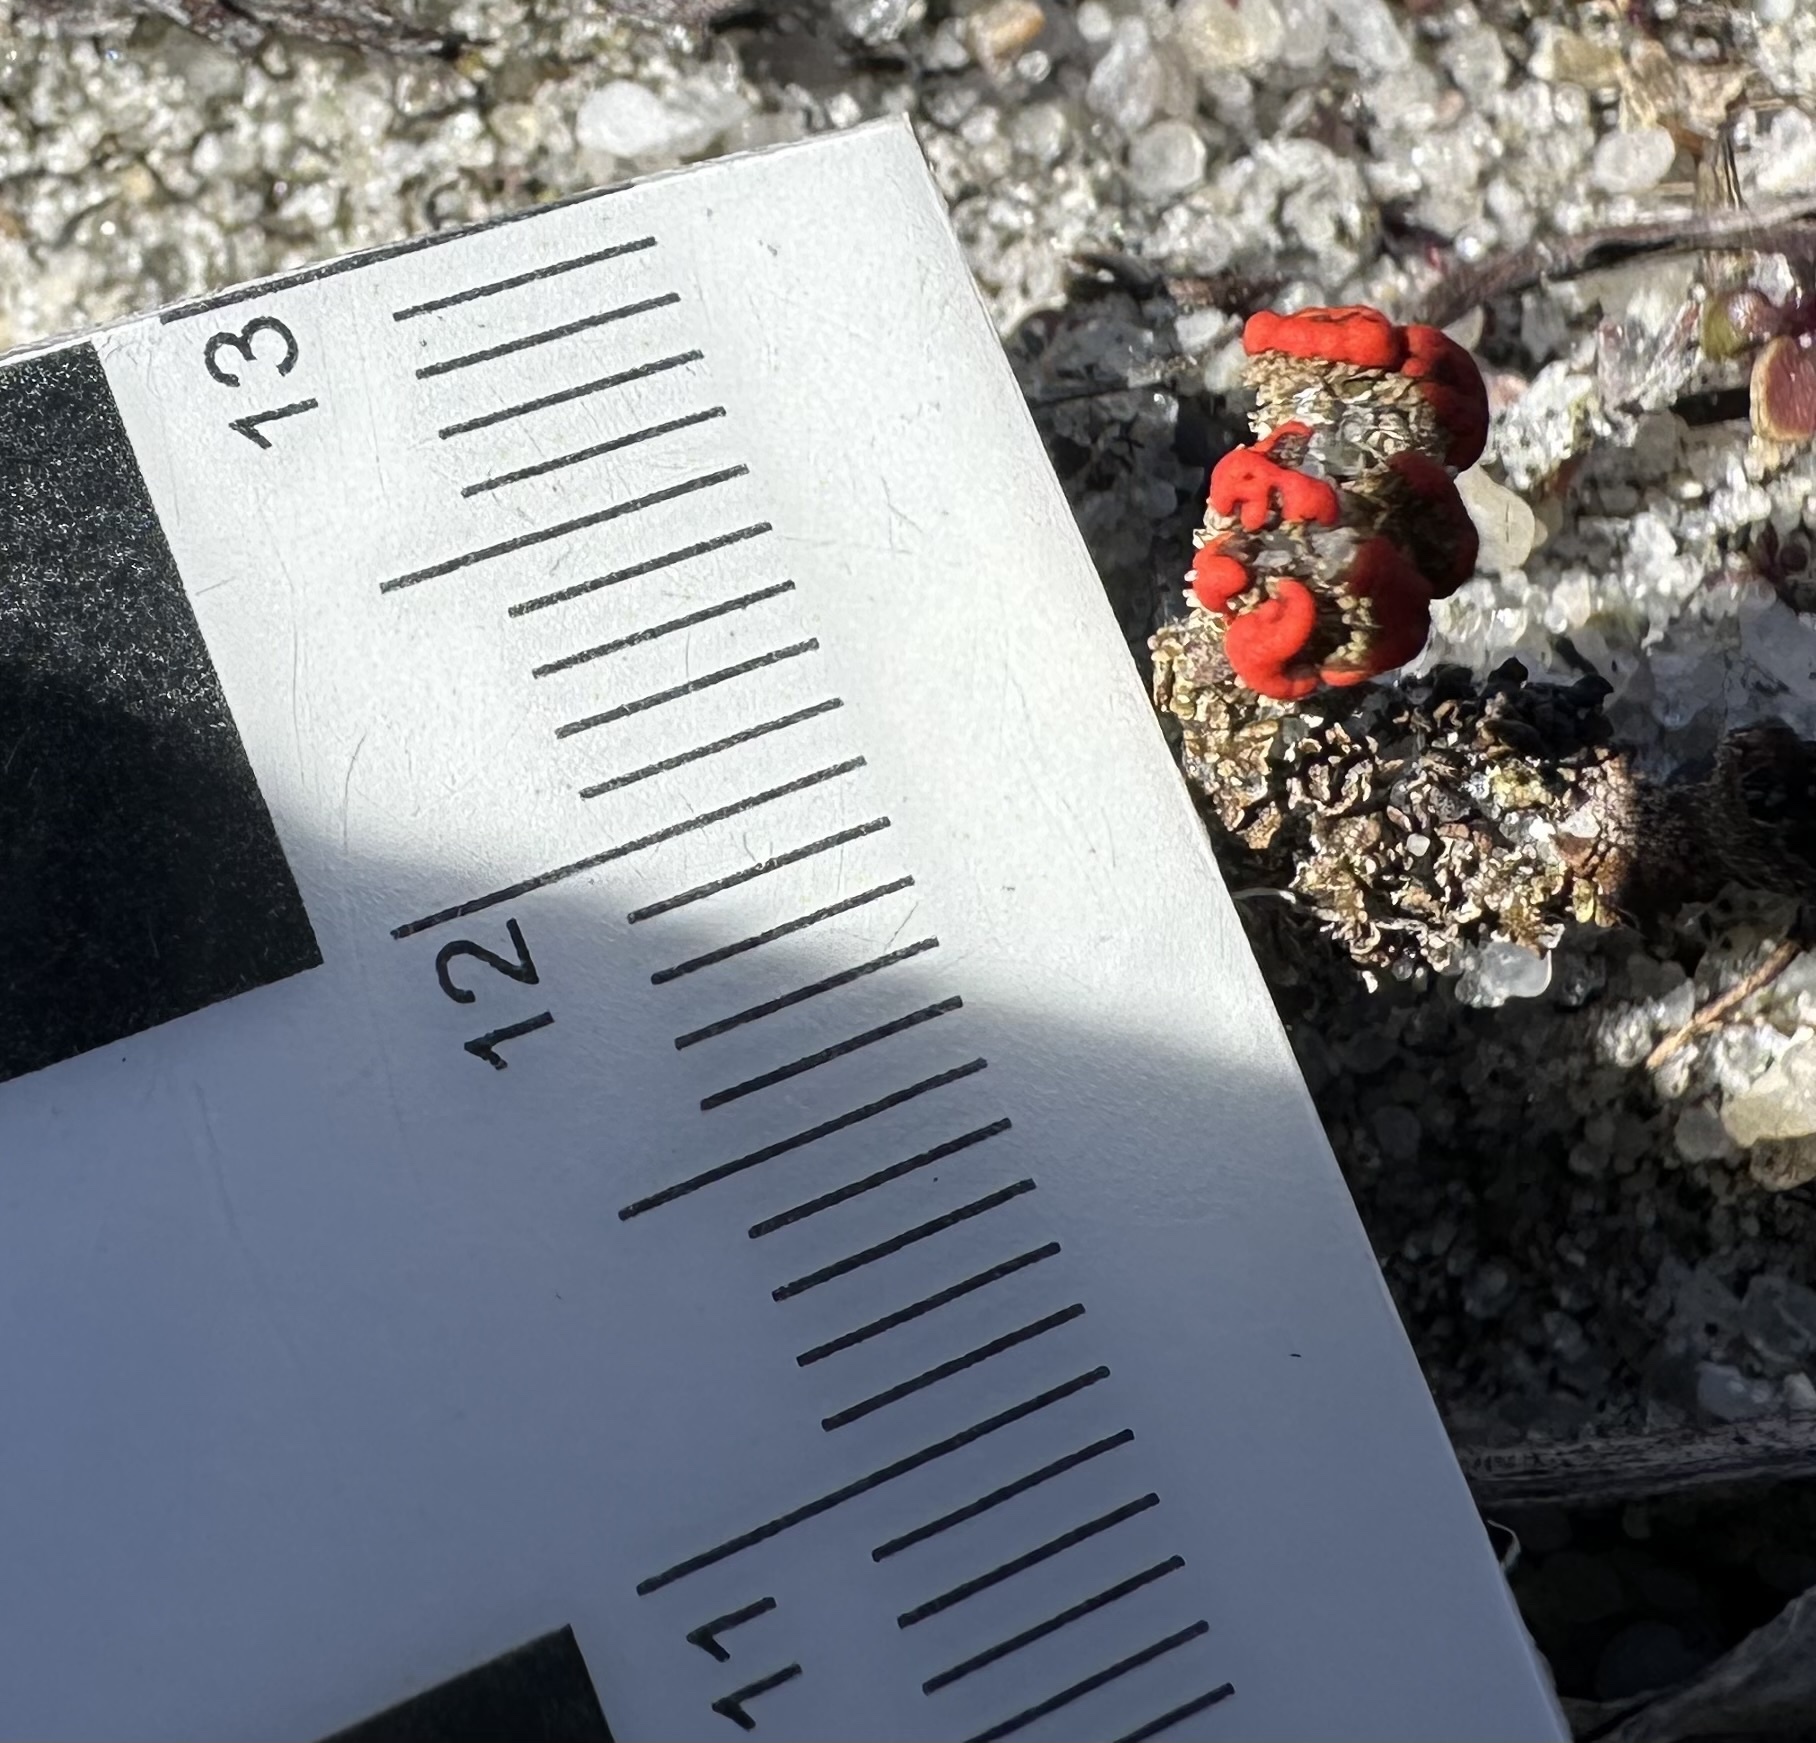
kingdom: Fungi
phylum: Ascomycota
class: Lecanoromycetes
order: Lecanorales
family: Cladoniaceae
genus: Cladonia
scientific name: Cladonia cristatella
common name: British soldier lichen
